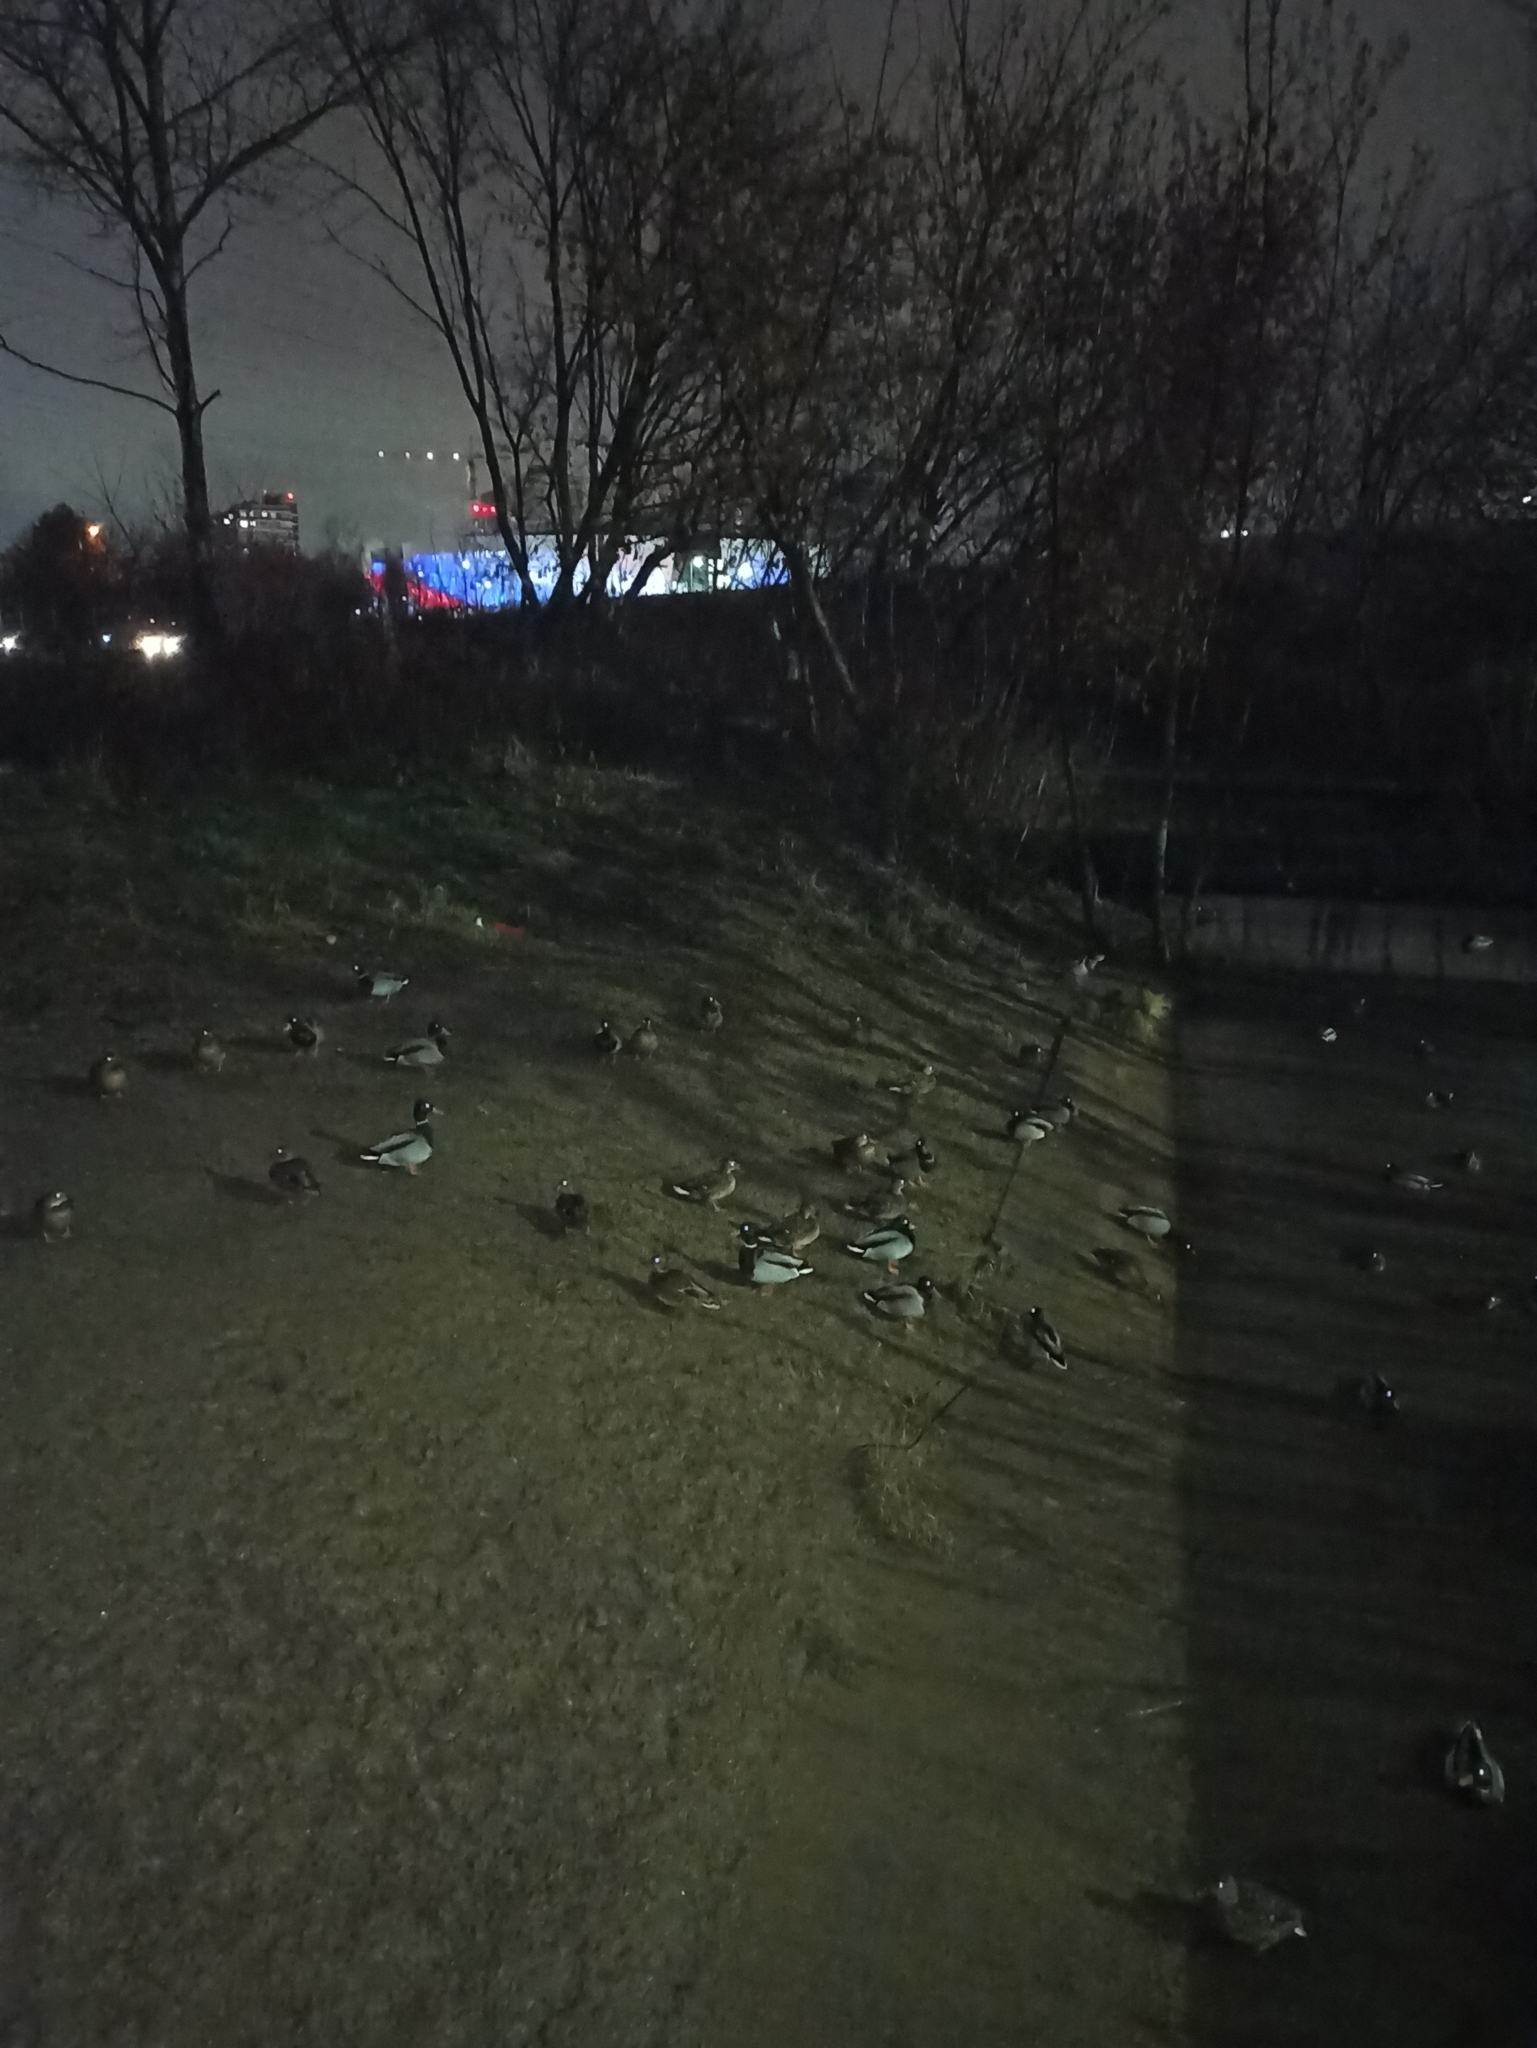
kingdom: Animalia
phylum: Chordata
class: Aves
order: Anseriformes
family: Anatidae
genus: Anas
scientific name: Anas platyrhynchos
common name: Mallard
